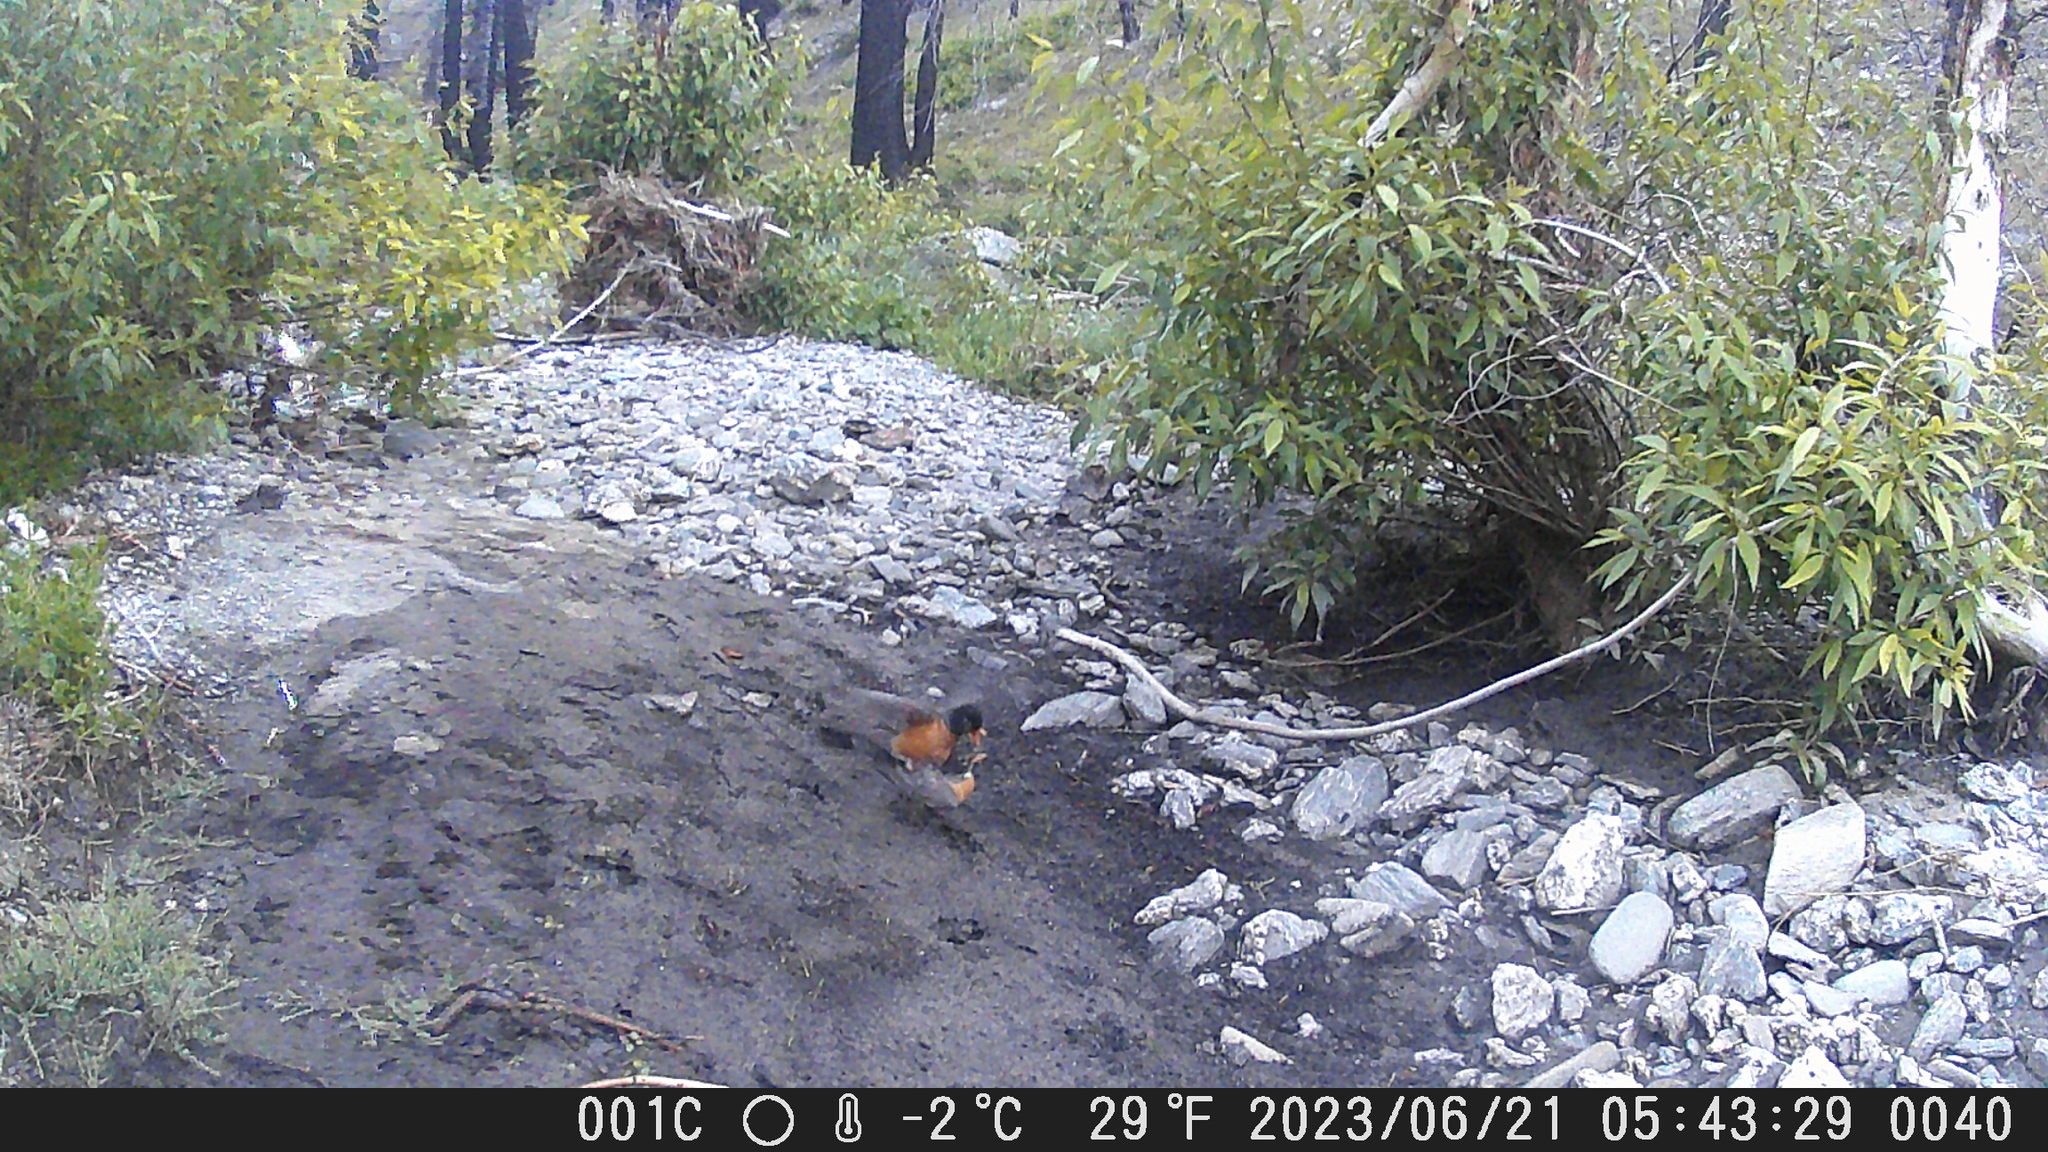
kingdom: Animalia
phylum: Chordata
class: Aves
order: Passeriformes
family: Turdidae
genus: Turdus
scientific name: Turdus migratorius
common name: American robin
